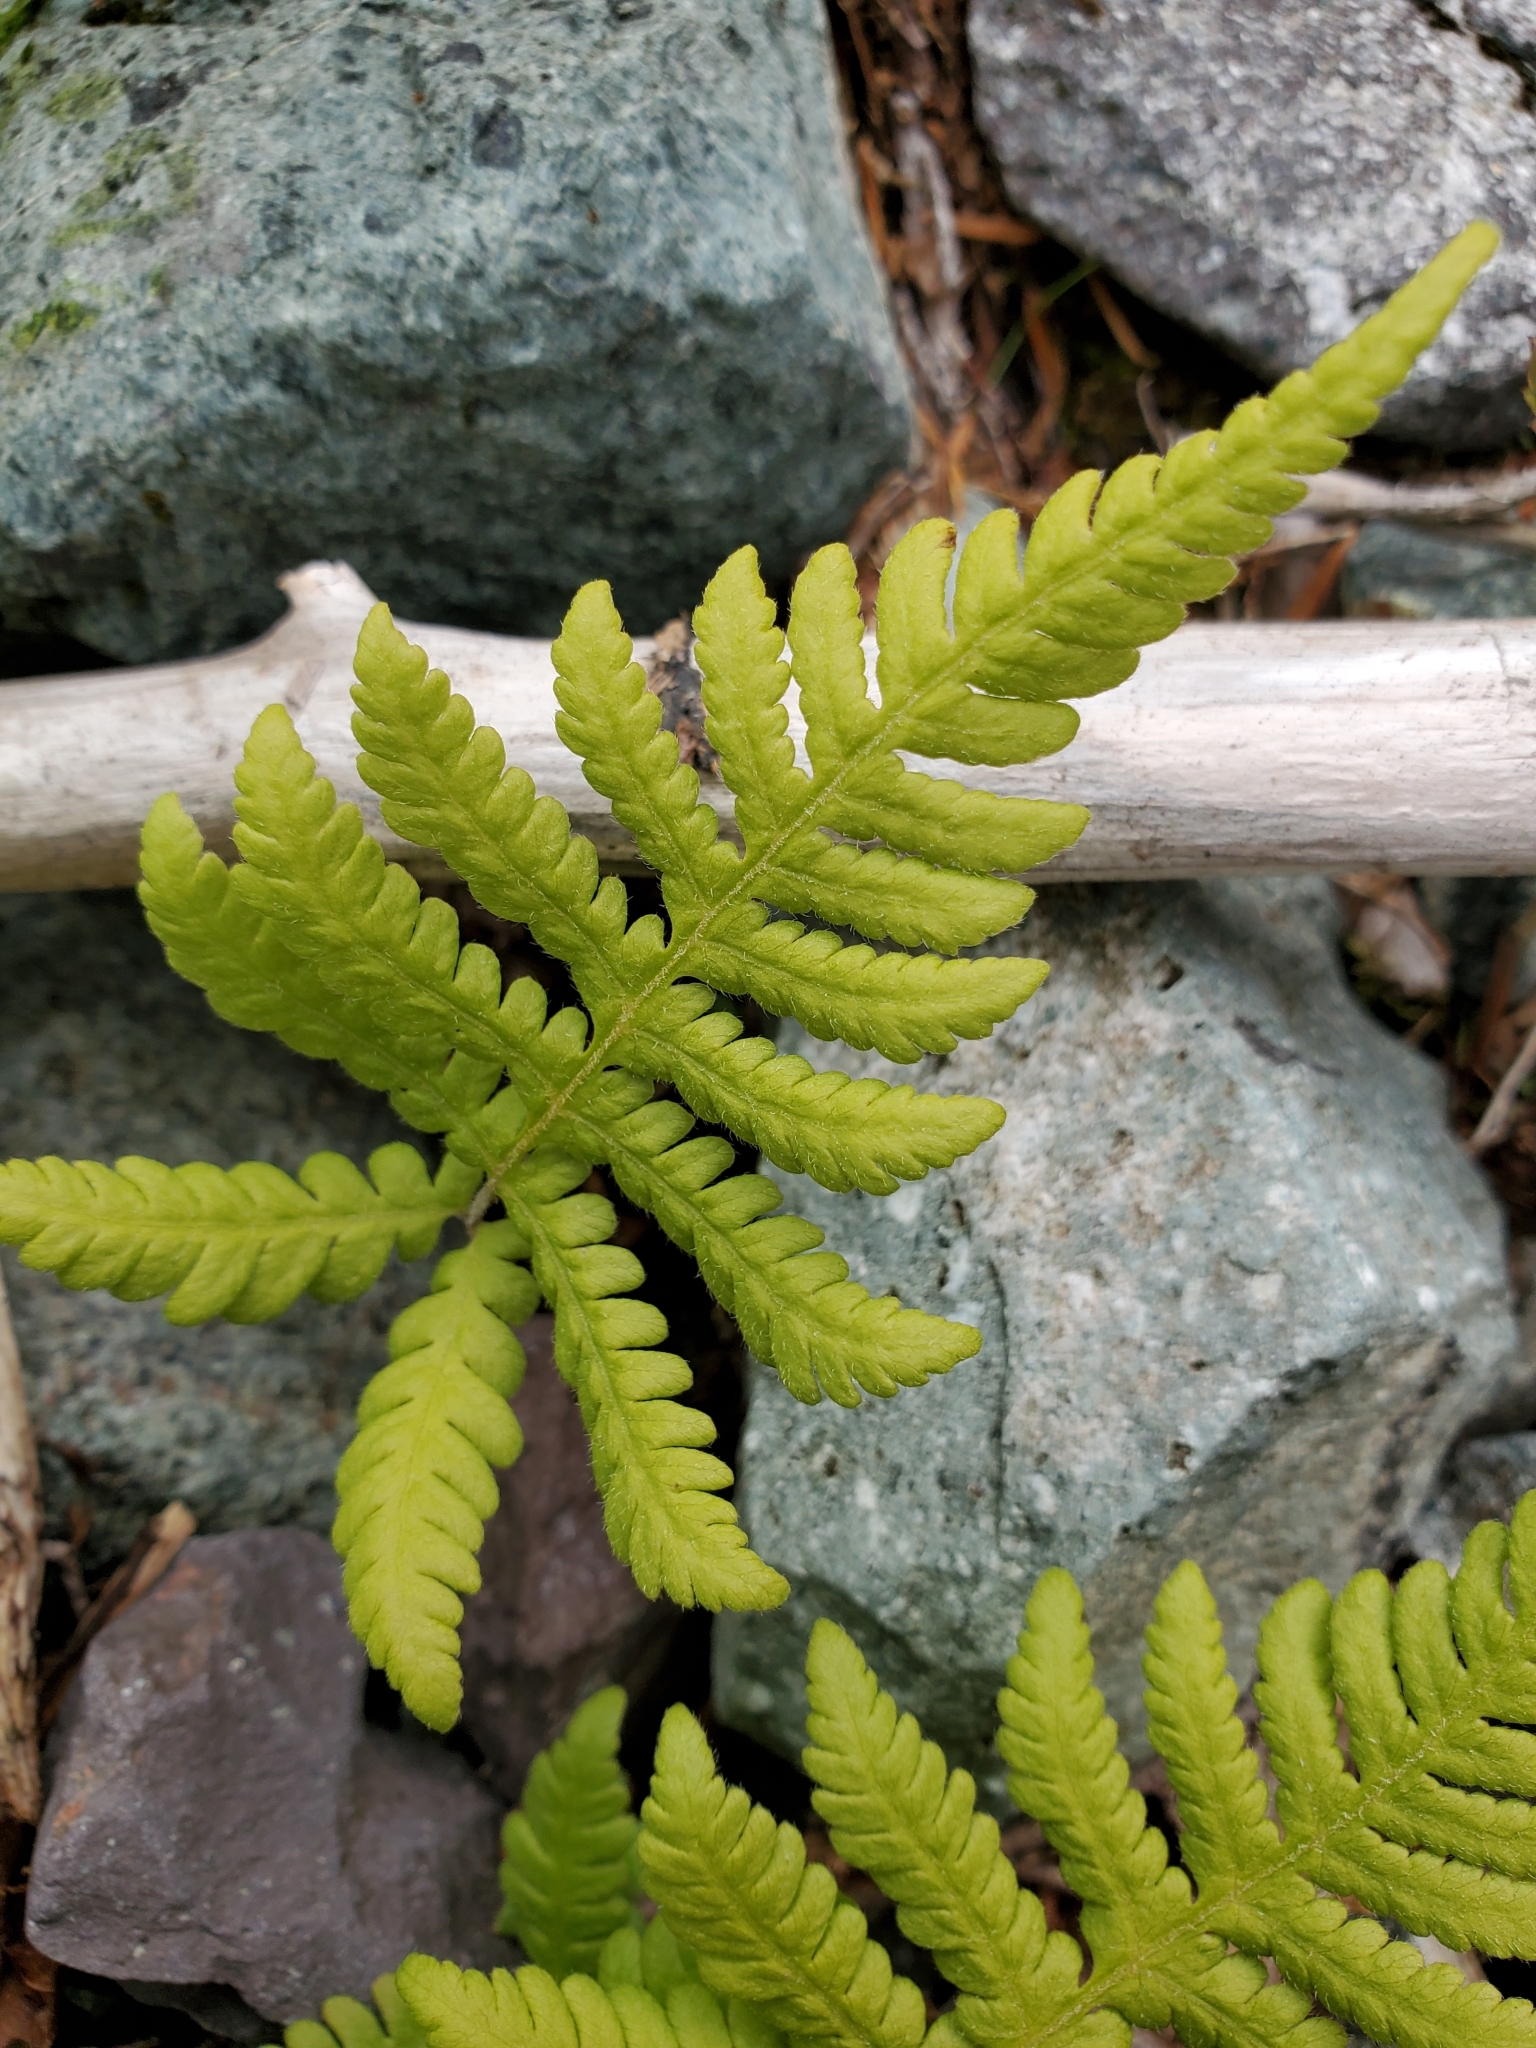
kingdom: Plantae
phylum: Tracheophyta
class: Polypodiopsida
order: Polypodiales
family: Thelypteridaceae
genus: Phegopteris
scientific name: Phegopteris connectilis
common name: Beech fern
